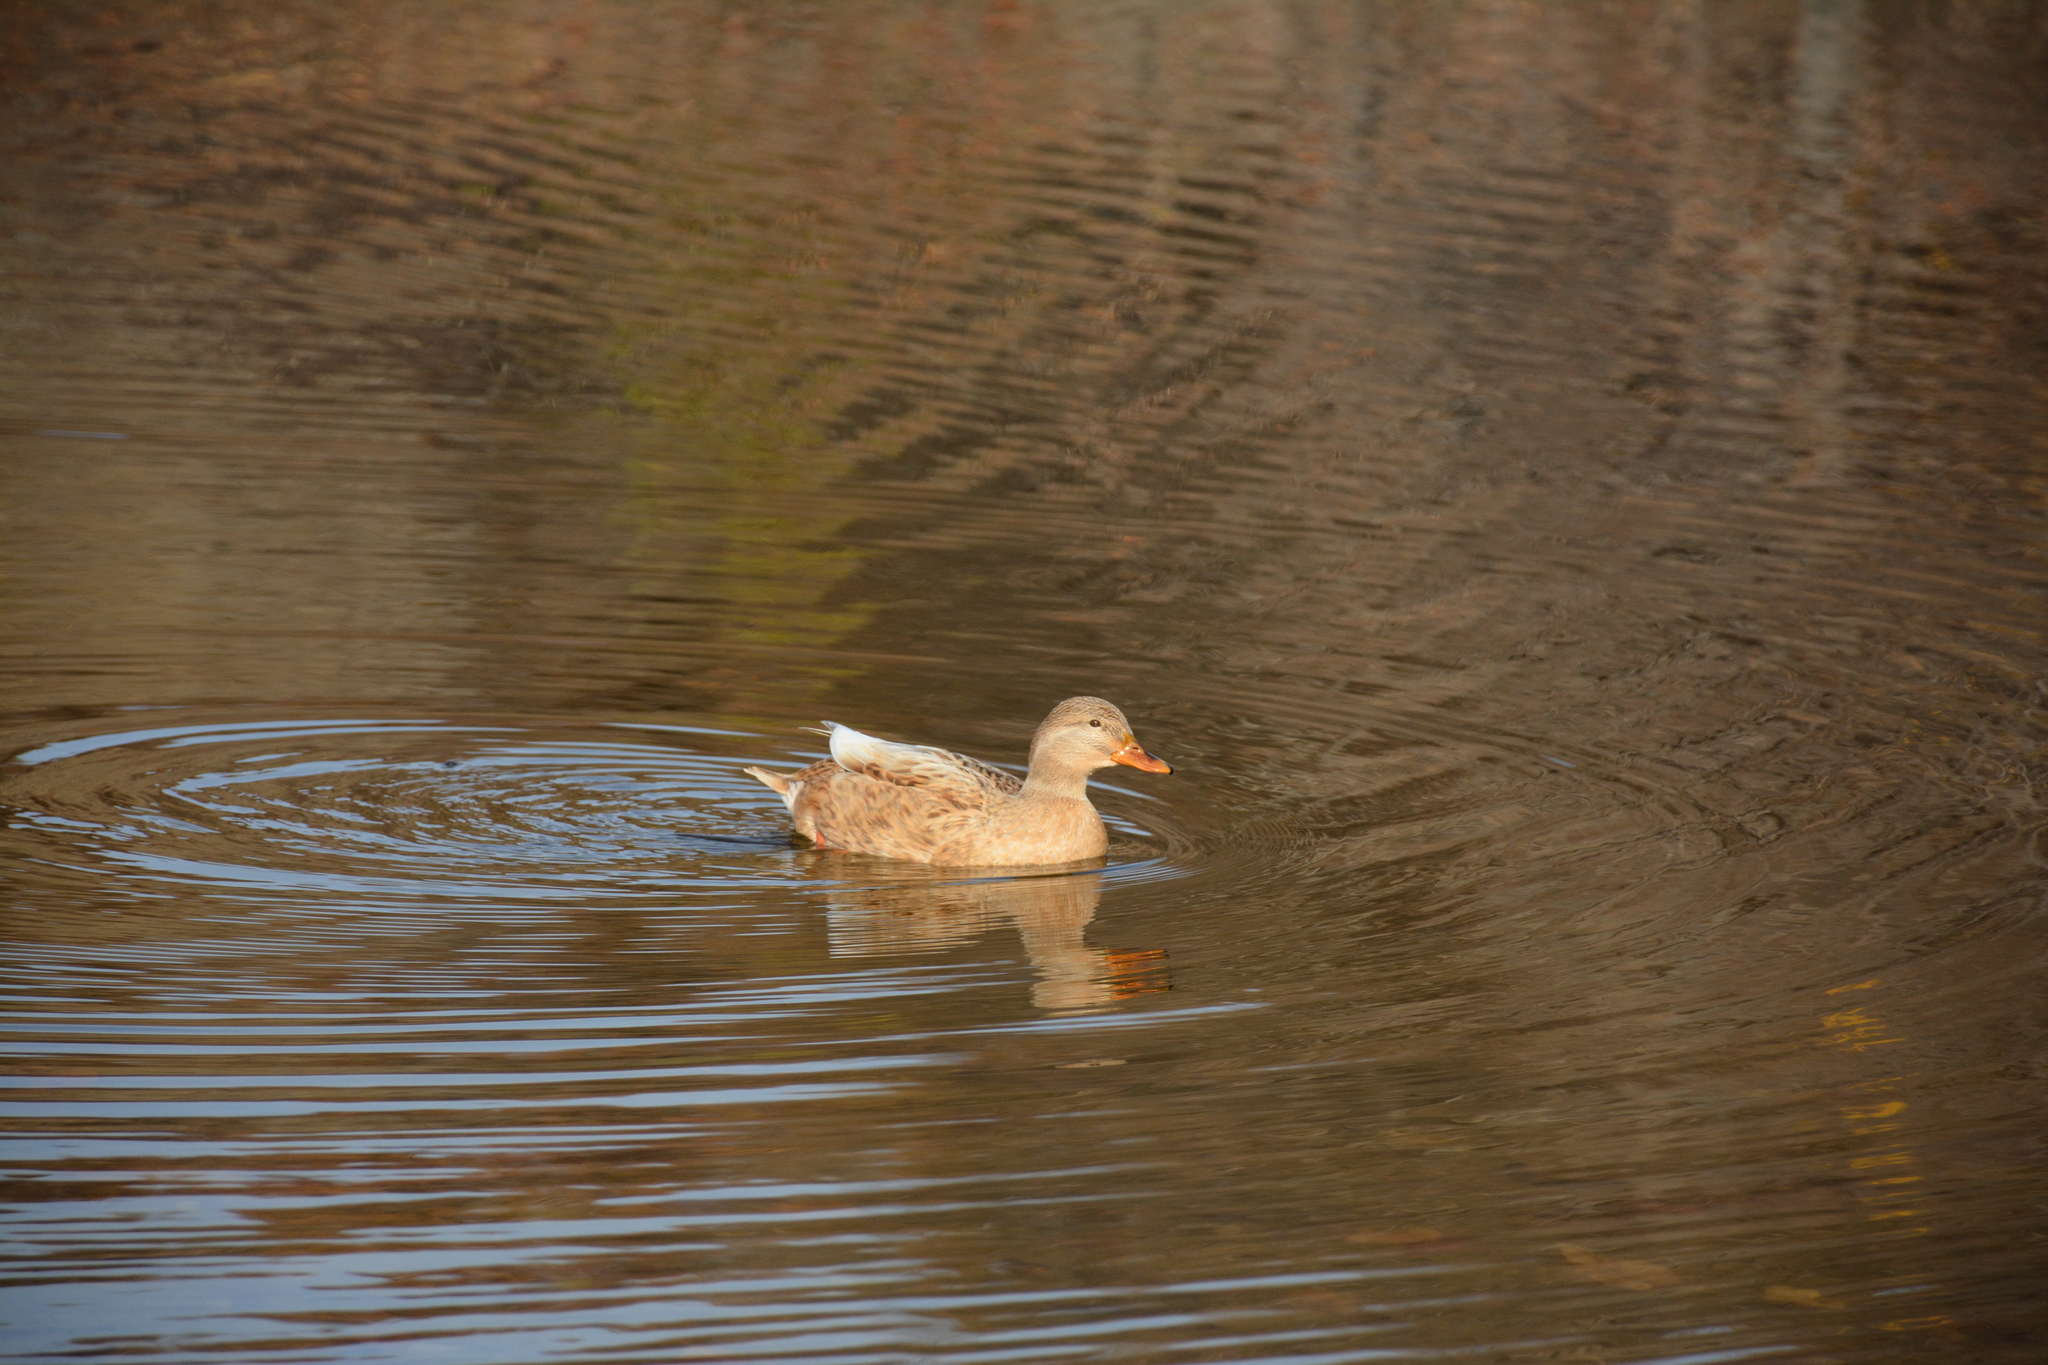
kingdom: Animalia
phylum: Chordata
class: Aves
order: Anseriformes
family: Anatidae
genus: Anas
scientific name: Anas platyrhynchos
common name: Mallard
